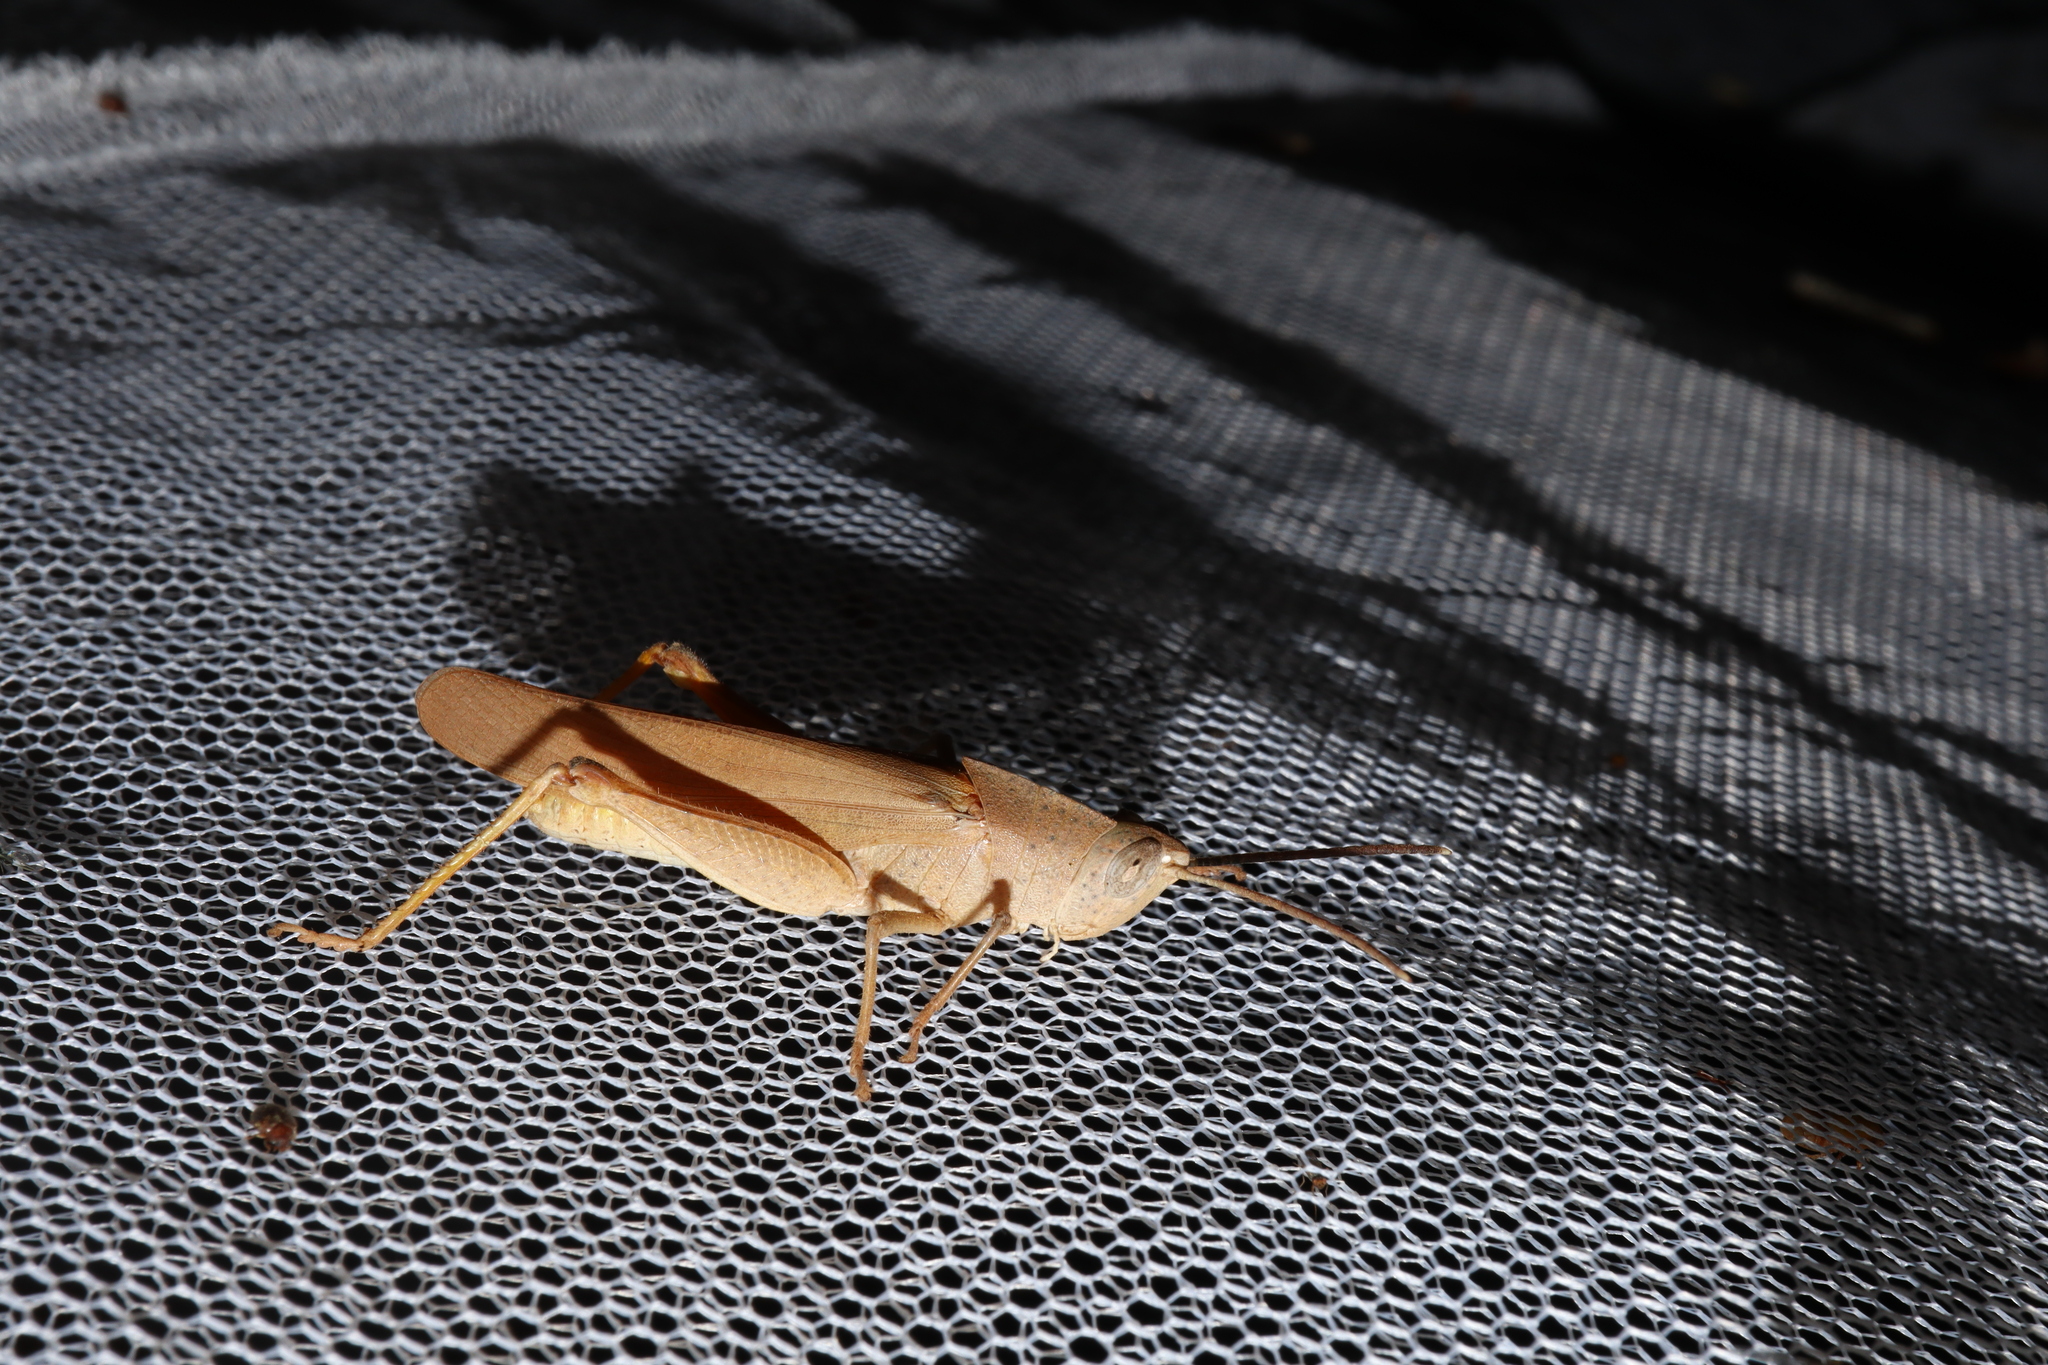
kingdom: Animalia
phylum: Arthropoda
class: Insecta
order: Orthoptera
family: Acrididae
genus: Goniaea
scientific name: Goniaea vocans
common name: Slender gumleaf grasshopper
